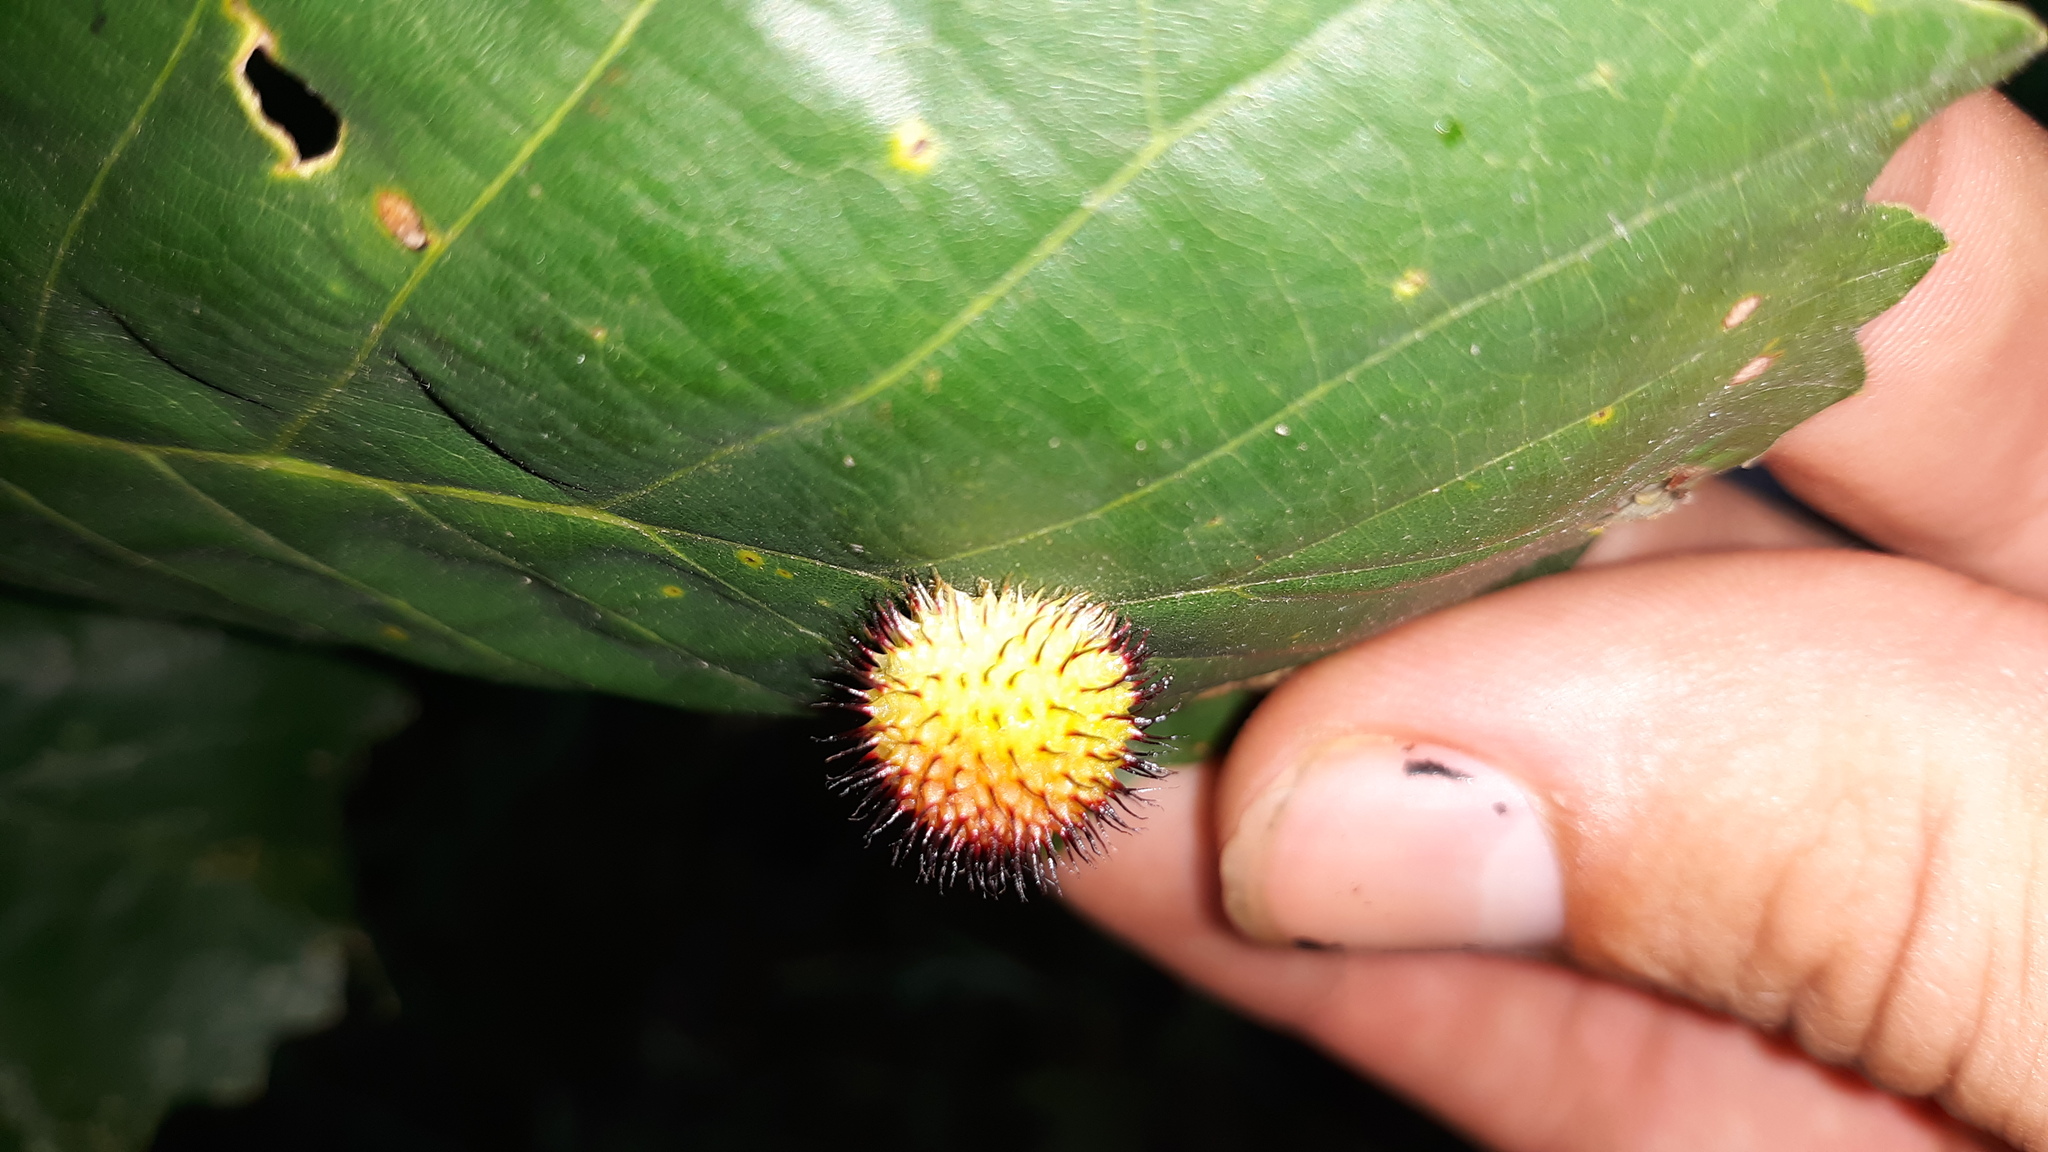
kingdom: Animalia
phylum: Arthropoda
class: Insecta
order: Hymenoptera
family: Cynipidae
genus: Acraspis
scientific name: Acraspis
